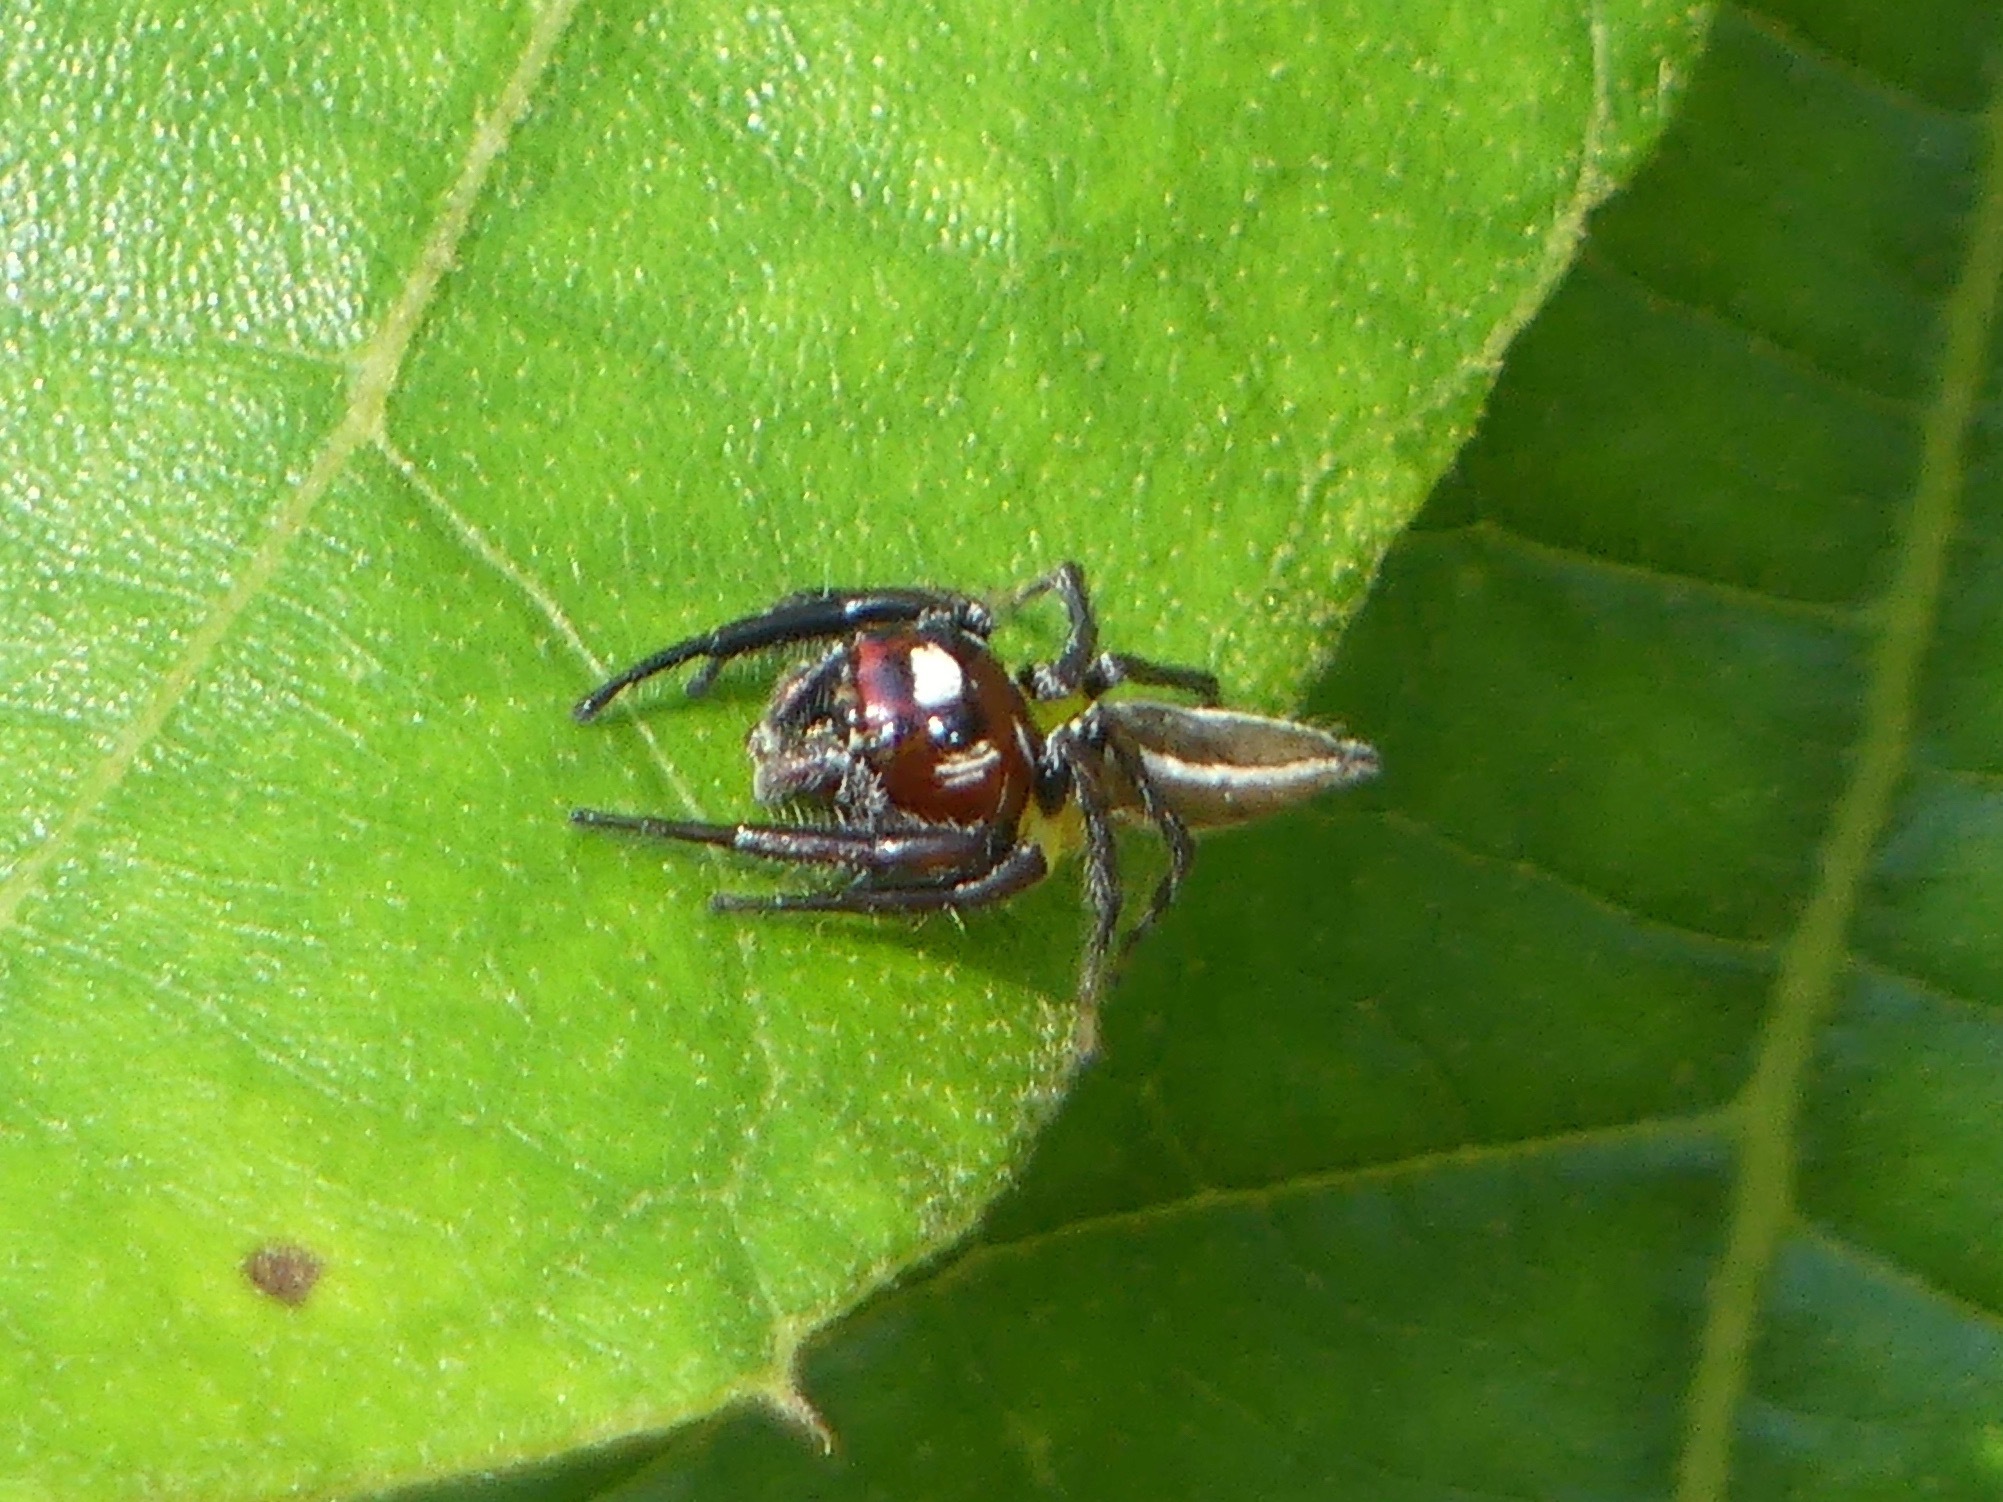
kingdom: Animalia
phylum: Arthropoda
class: Arachnida
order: Araneae
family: Salticidae
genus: Colonus
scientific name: Colonus sylvanus
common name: Jumping spiders
